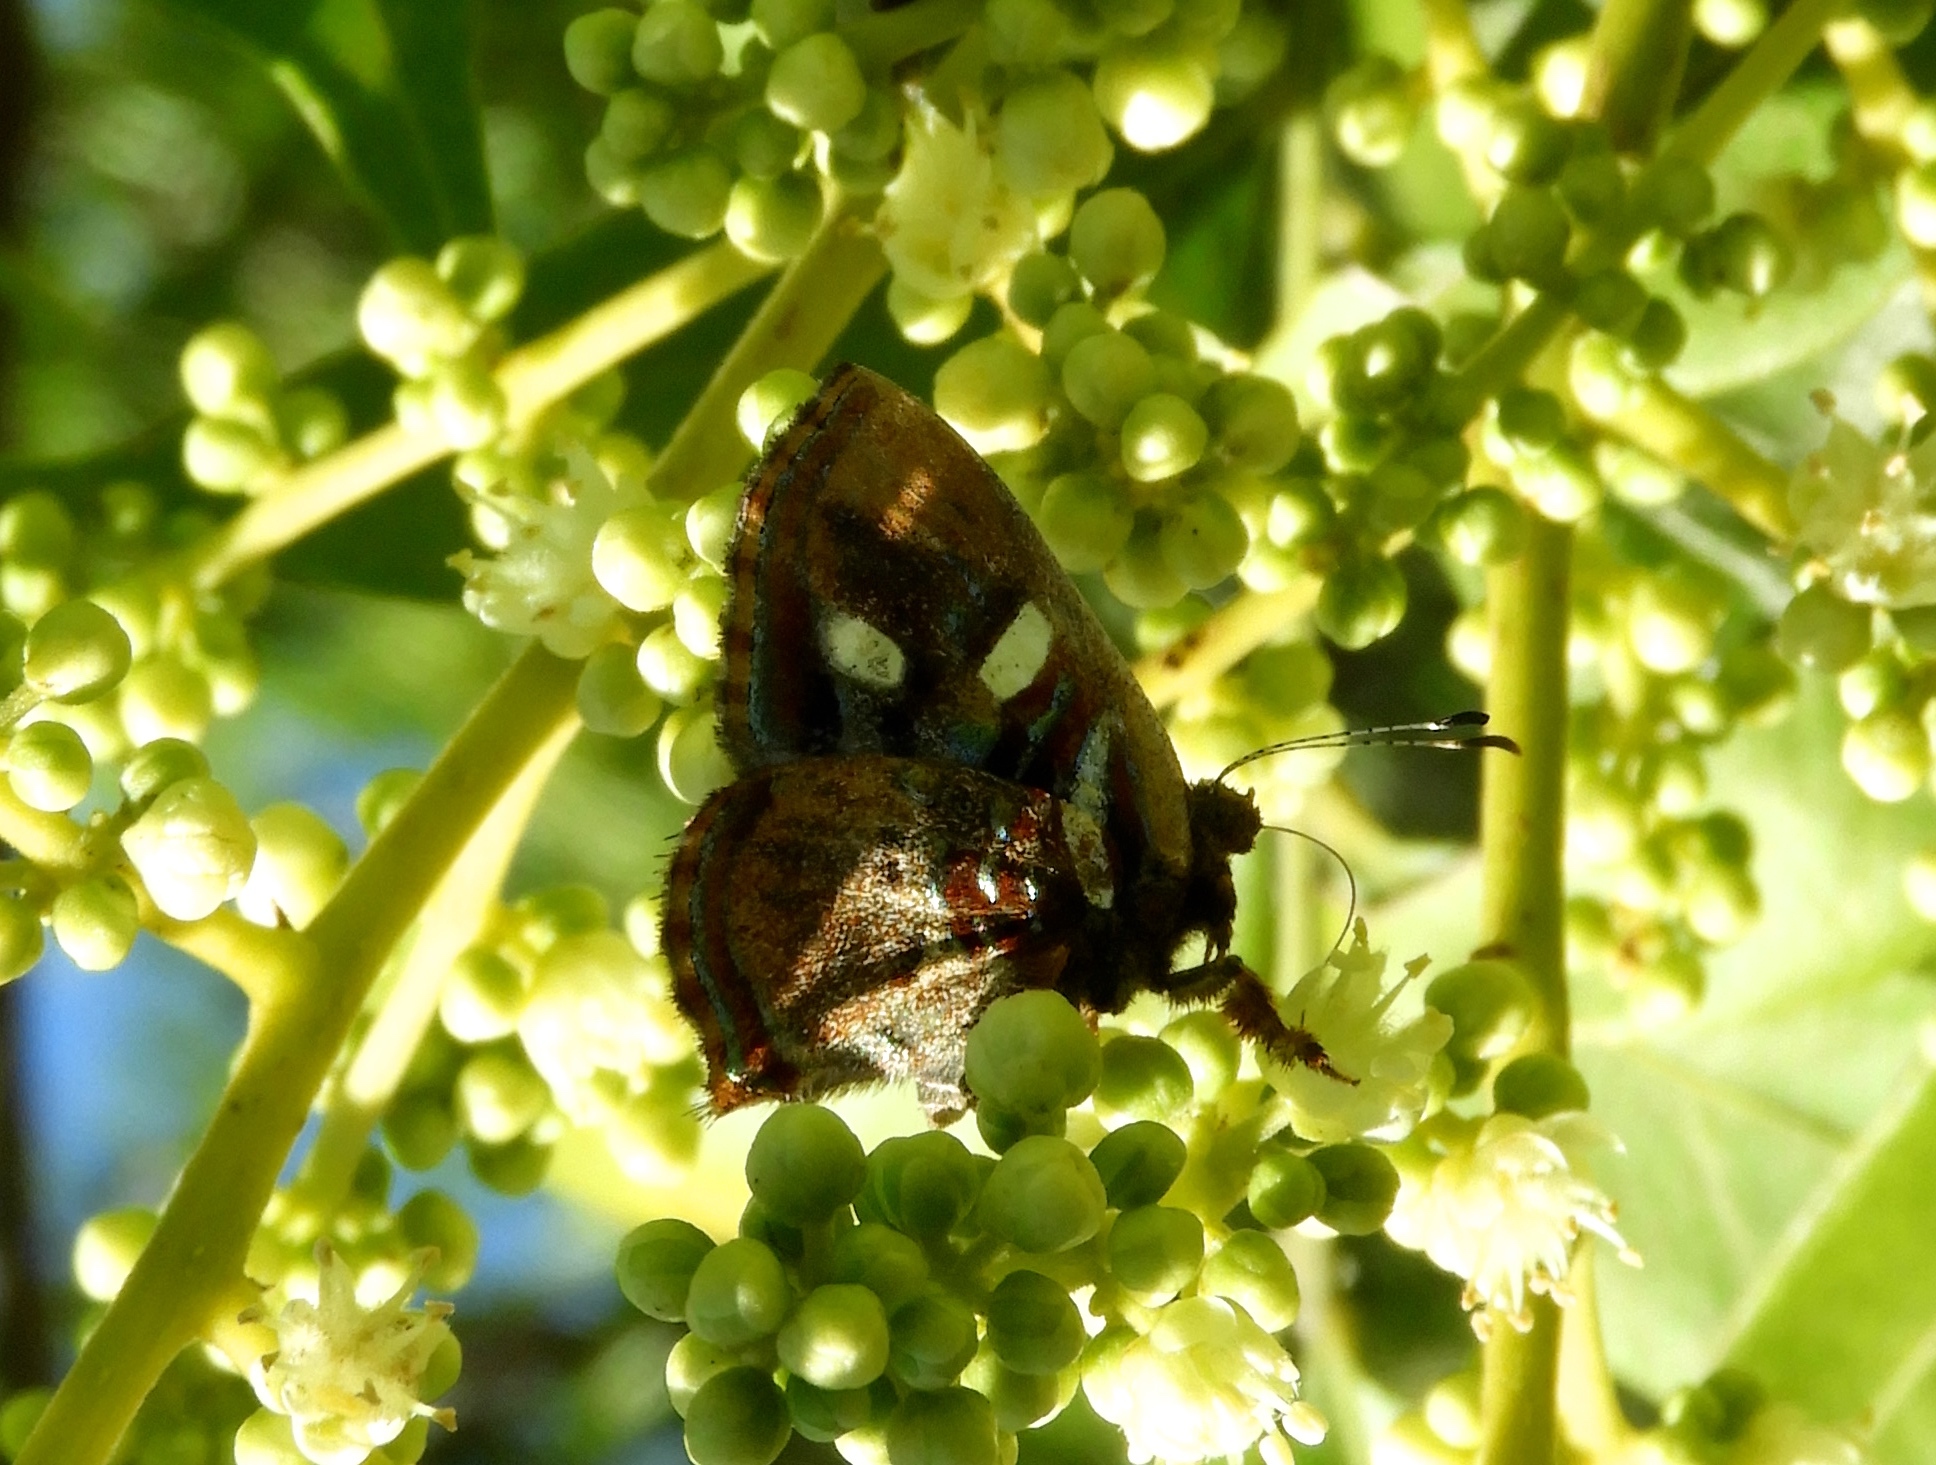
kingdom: Animalia
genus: Anteros
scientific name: Anteros carausius
